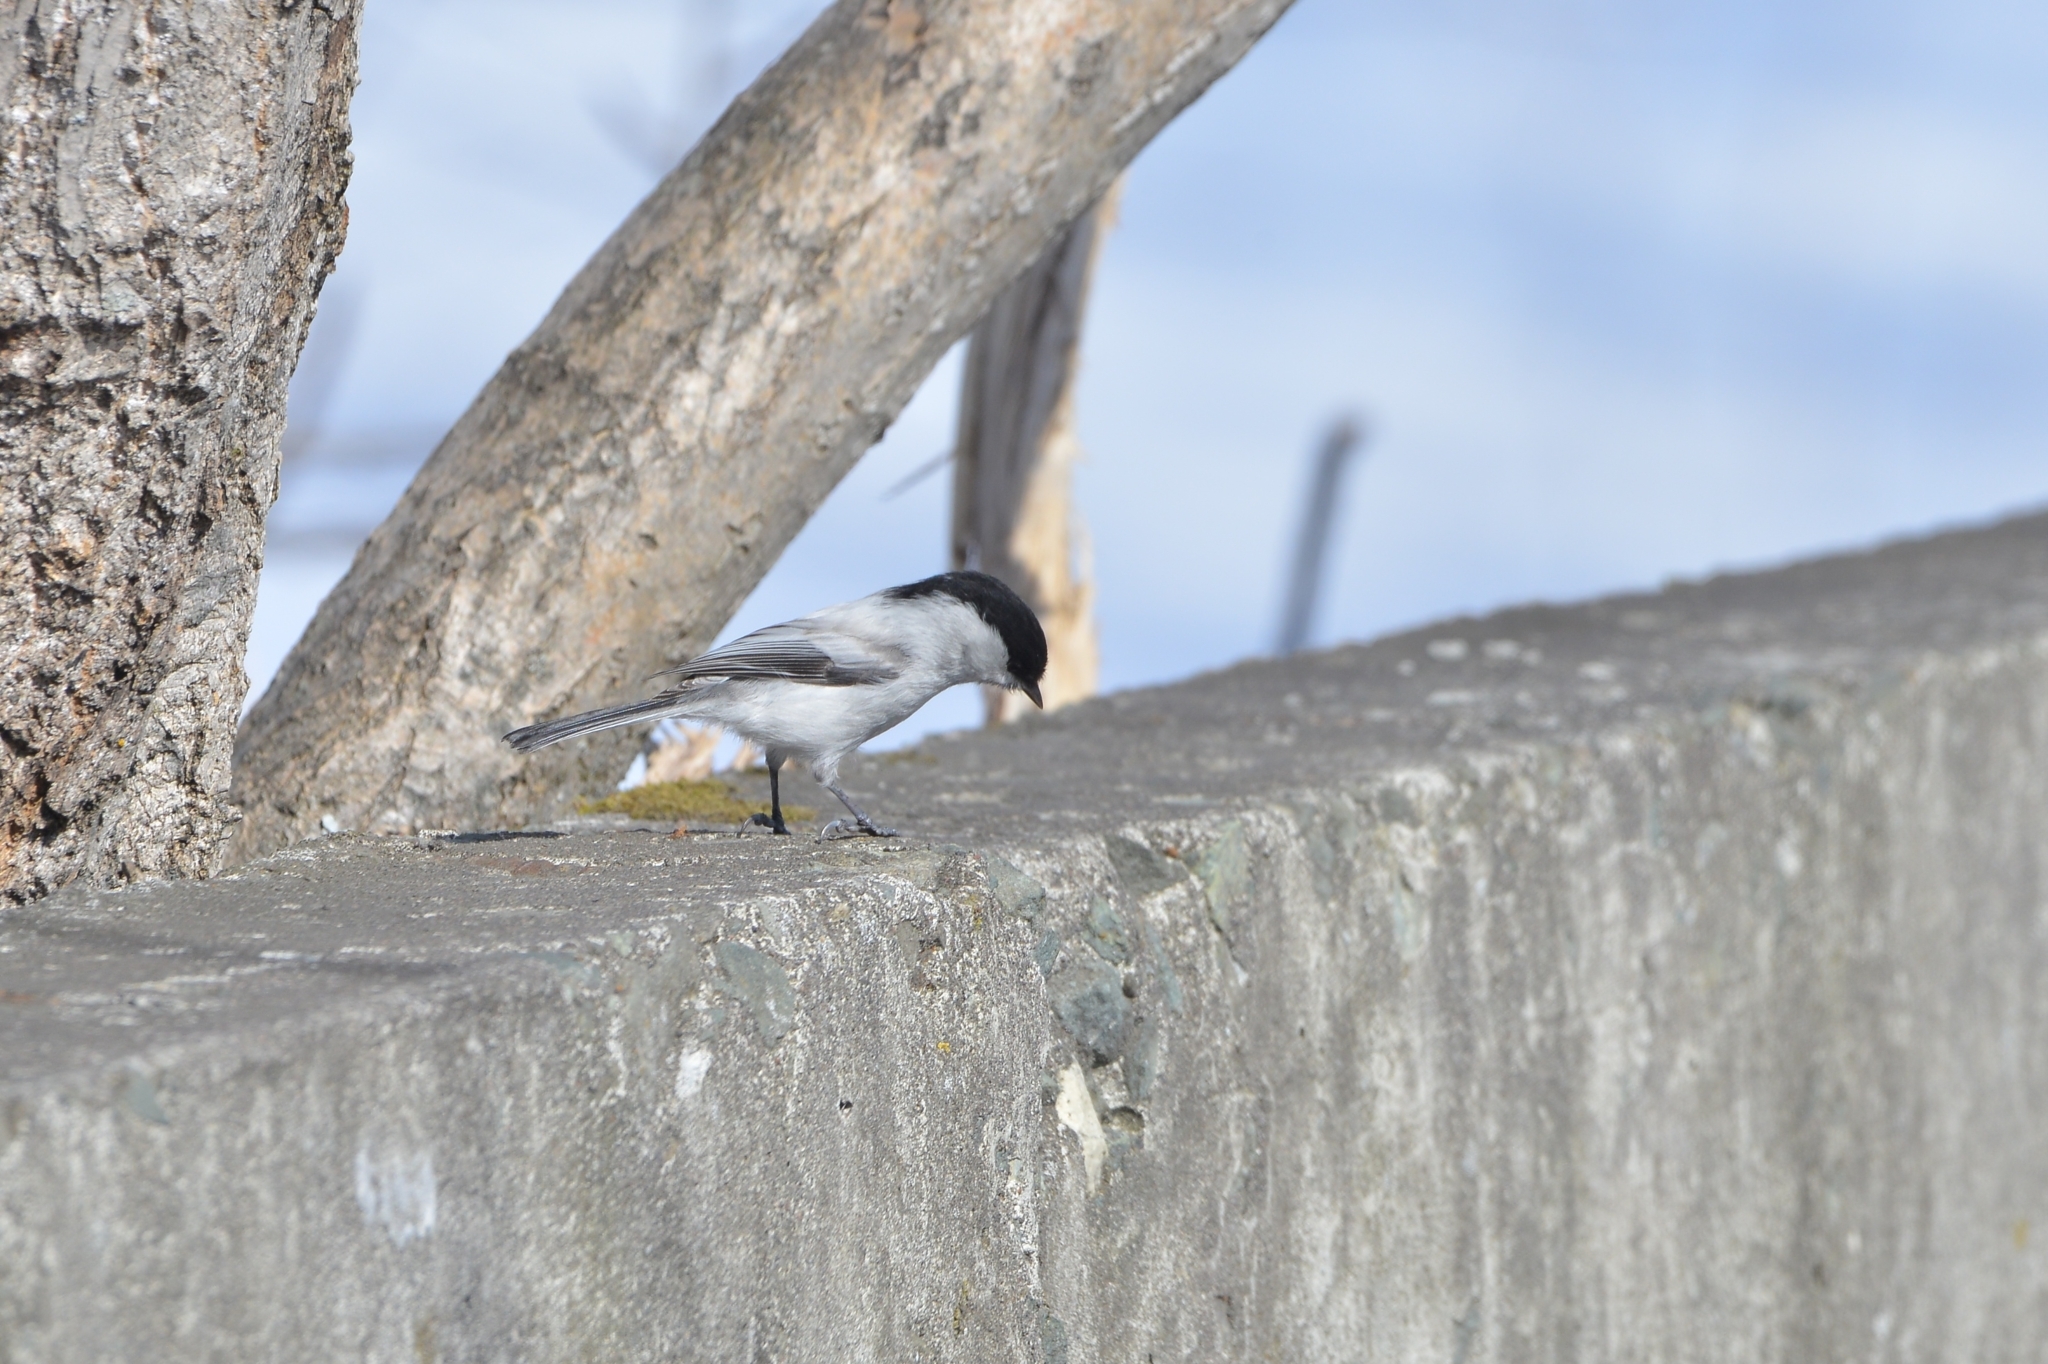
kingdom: Animalia
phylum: Chordata
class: Aves
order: Passeriformes
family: Paridae
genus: Poecile
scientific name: Poecile montanus
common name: Willow tit
